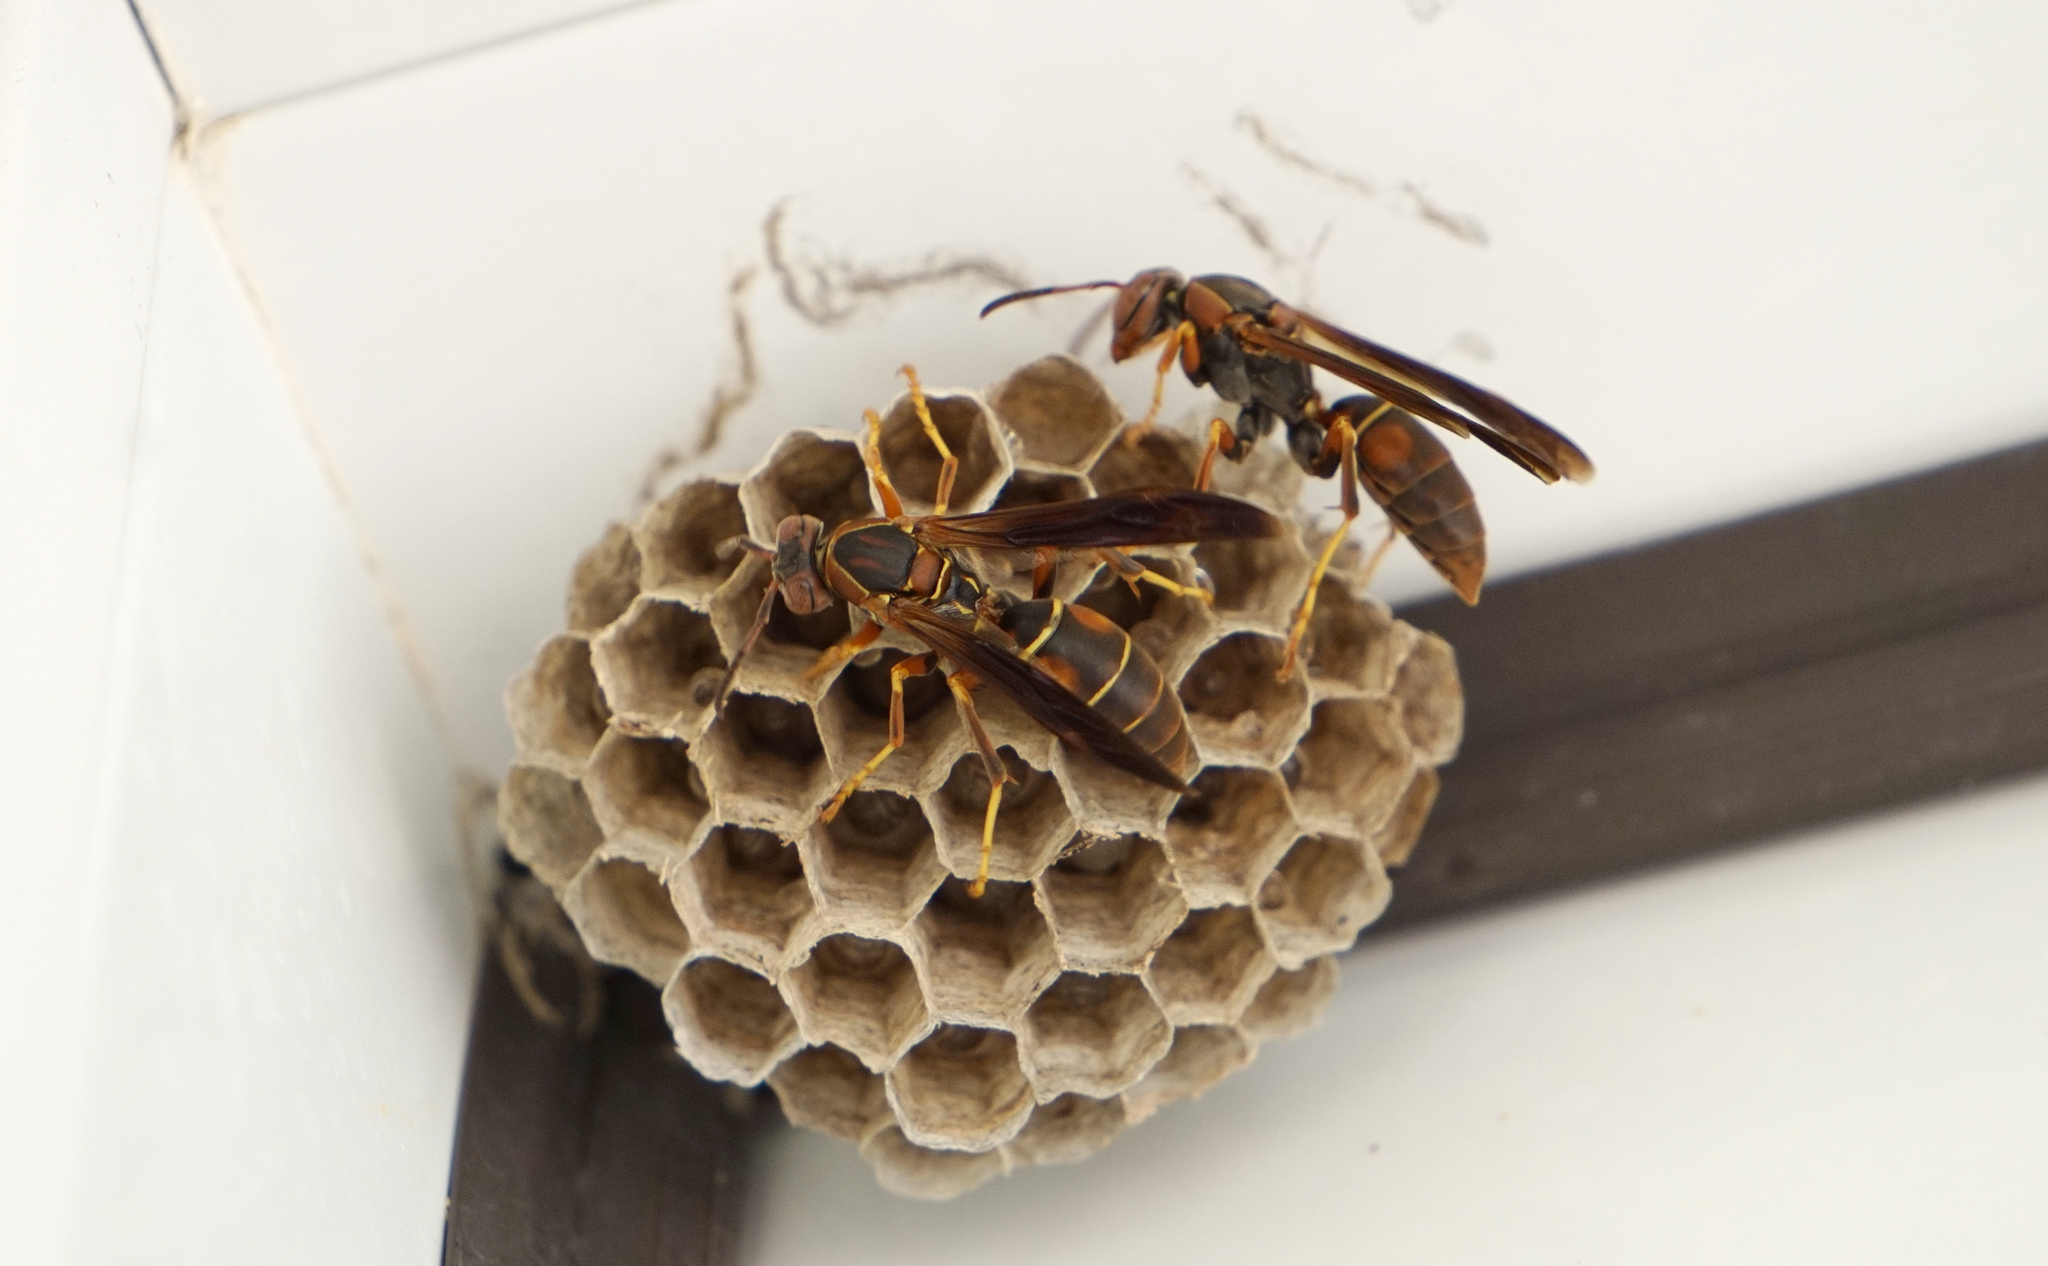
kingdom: Animalia
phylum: Arthropoda
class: Insecta
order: Hymenoptera
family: Eumenidae
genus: Polistes
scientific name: Polistes fuscatus
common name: Dark paper wasp
